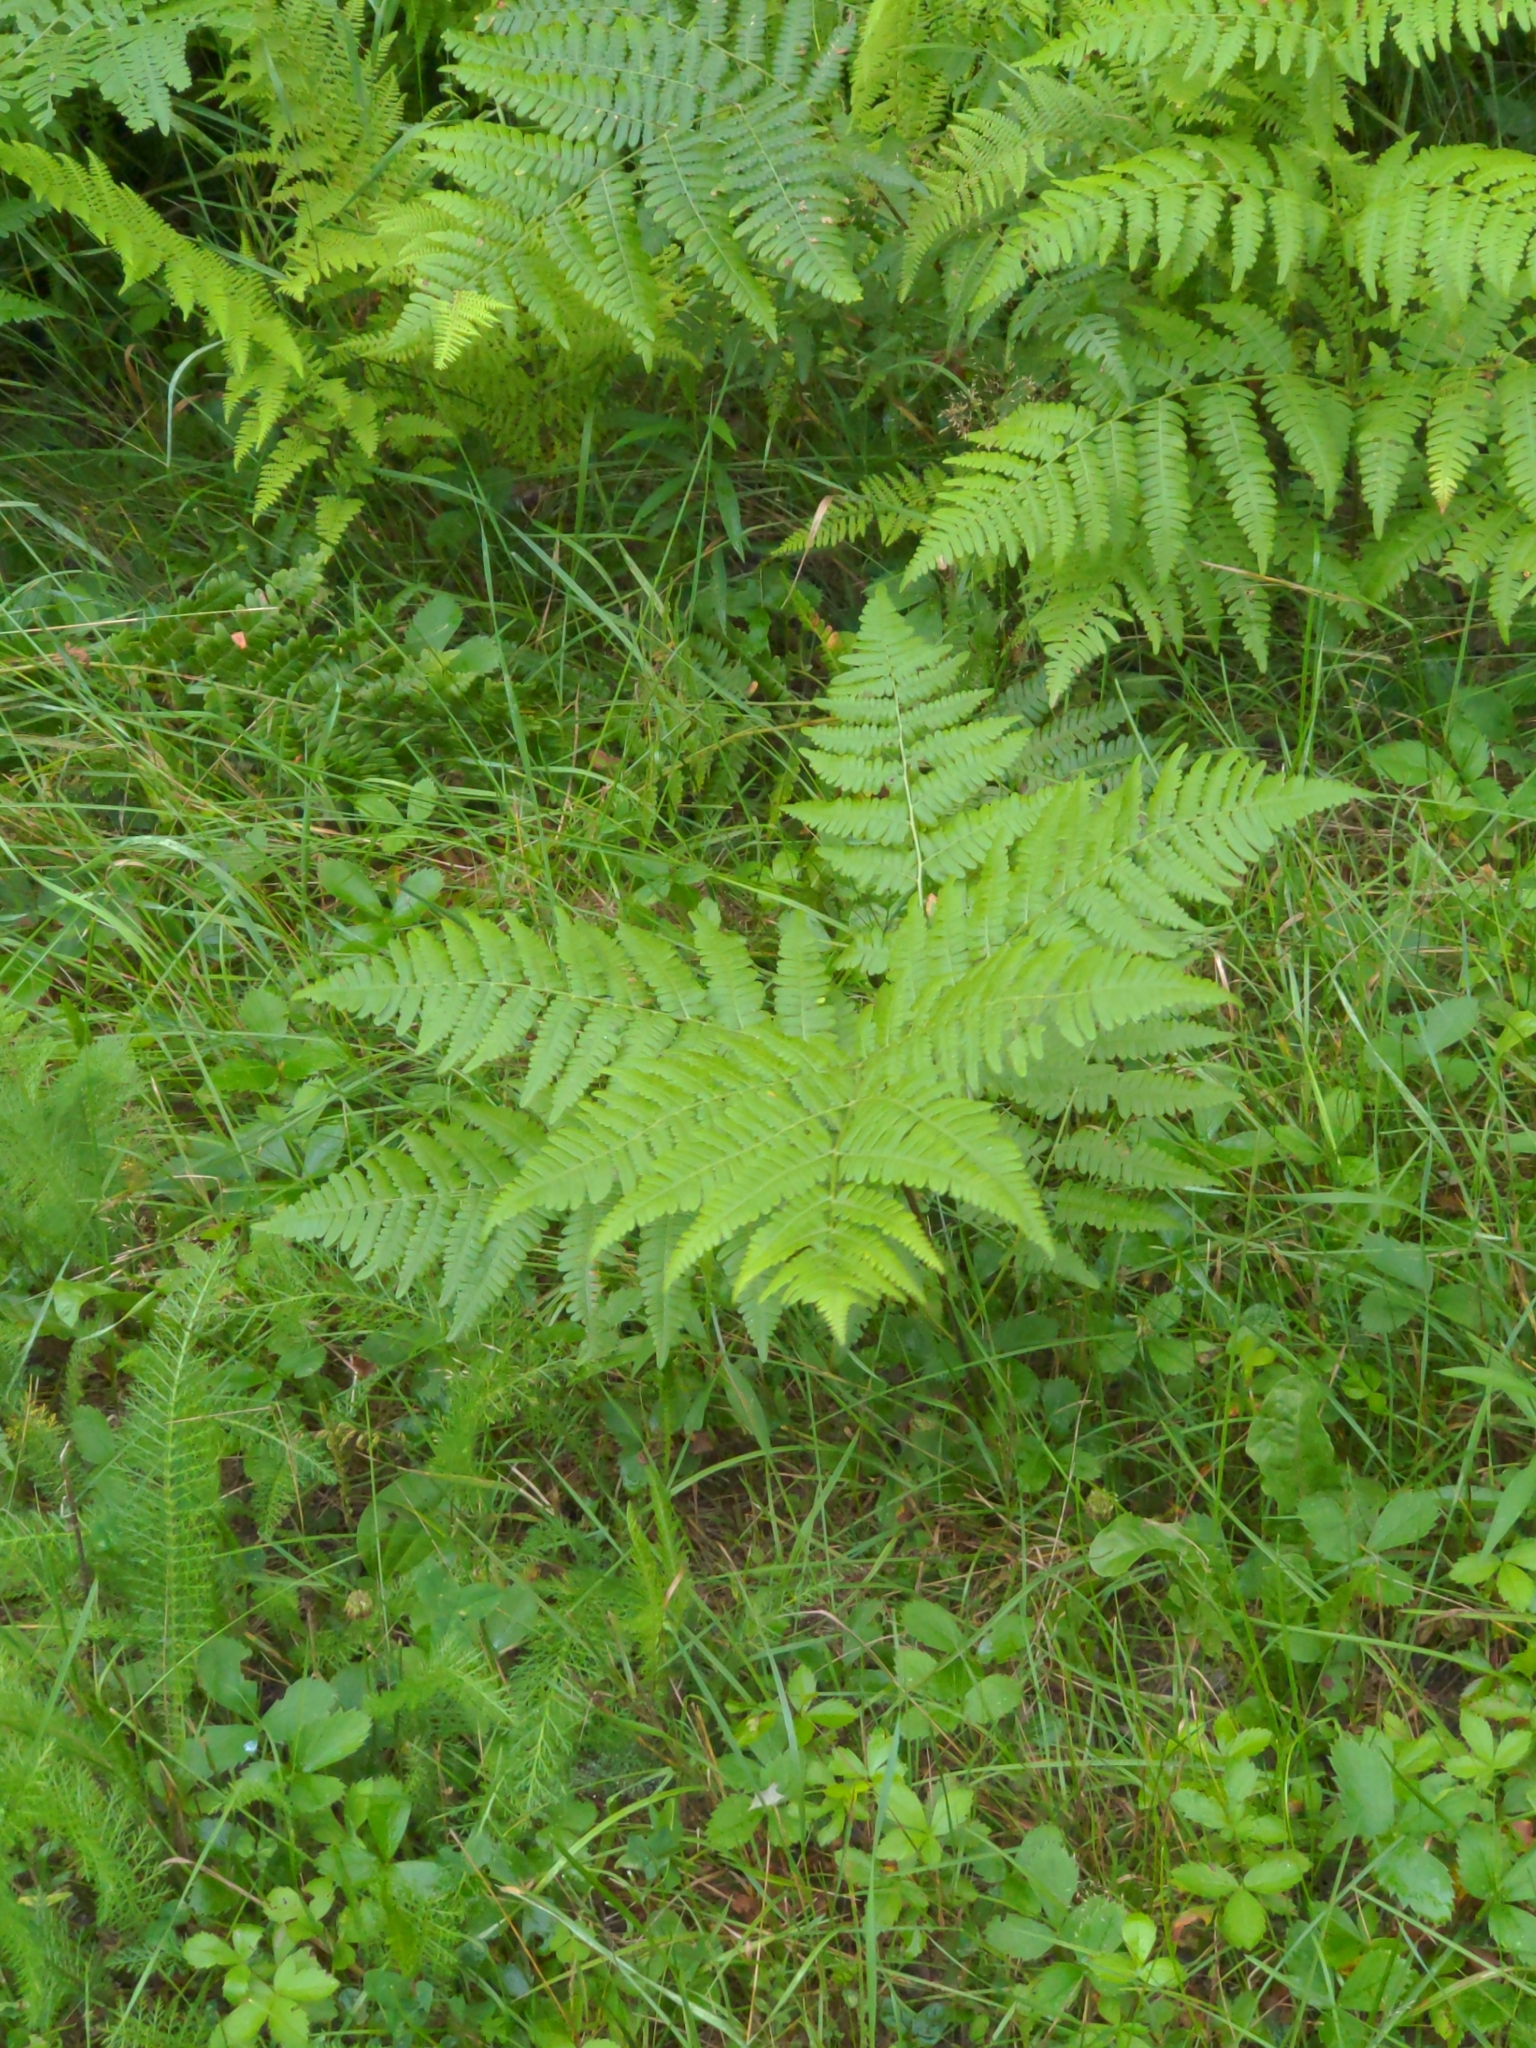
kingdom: Plantae
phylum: Tracheophyta
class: Polypodiopsida
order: Polypodiales
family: Dennstaedtiaceae
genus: Pteridium
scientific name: Pteridium aquilinum
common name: Bracken
